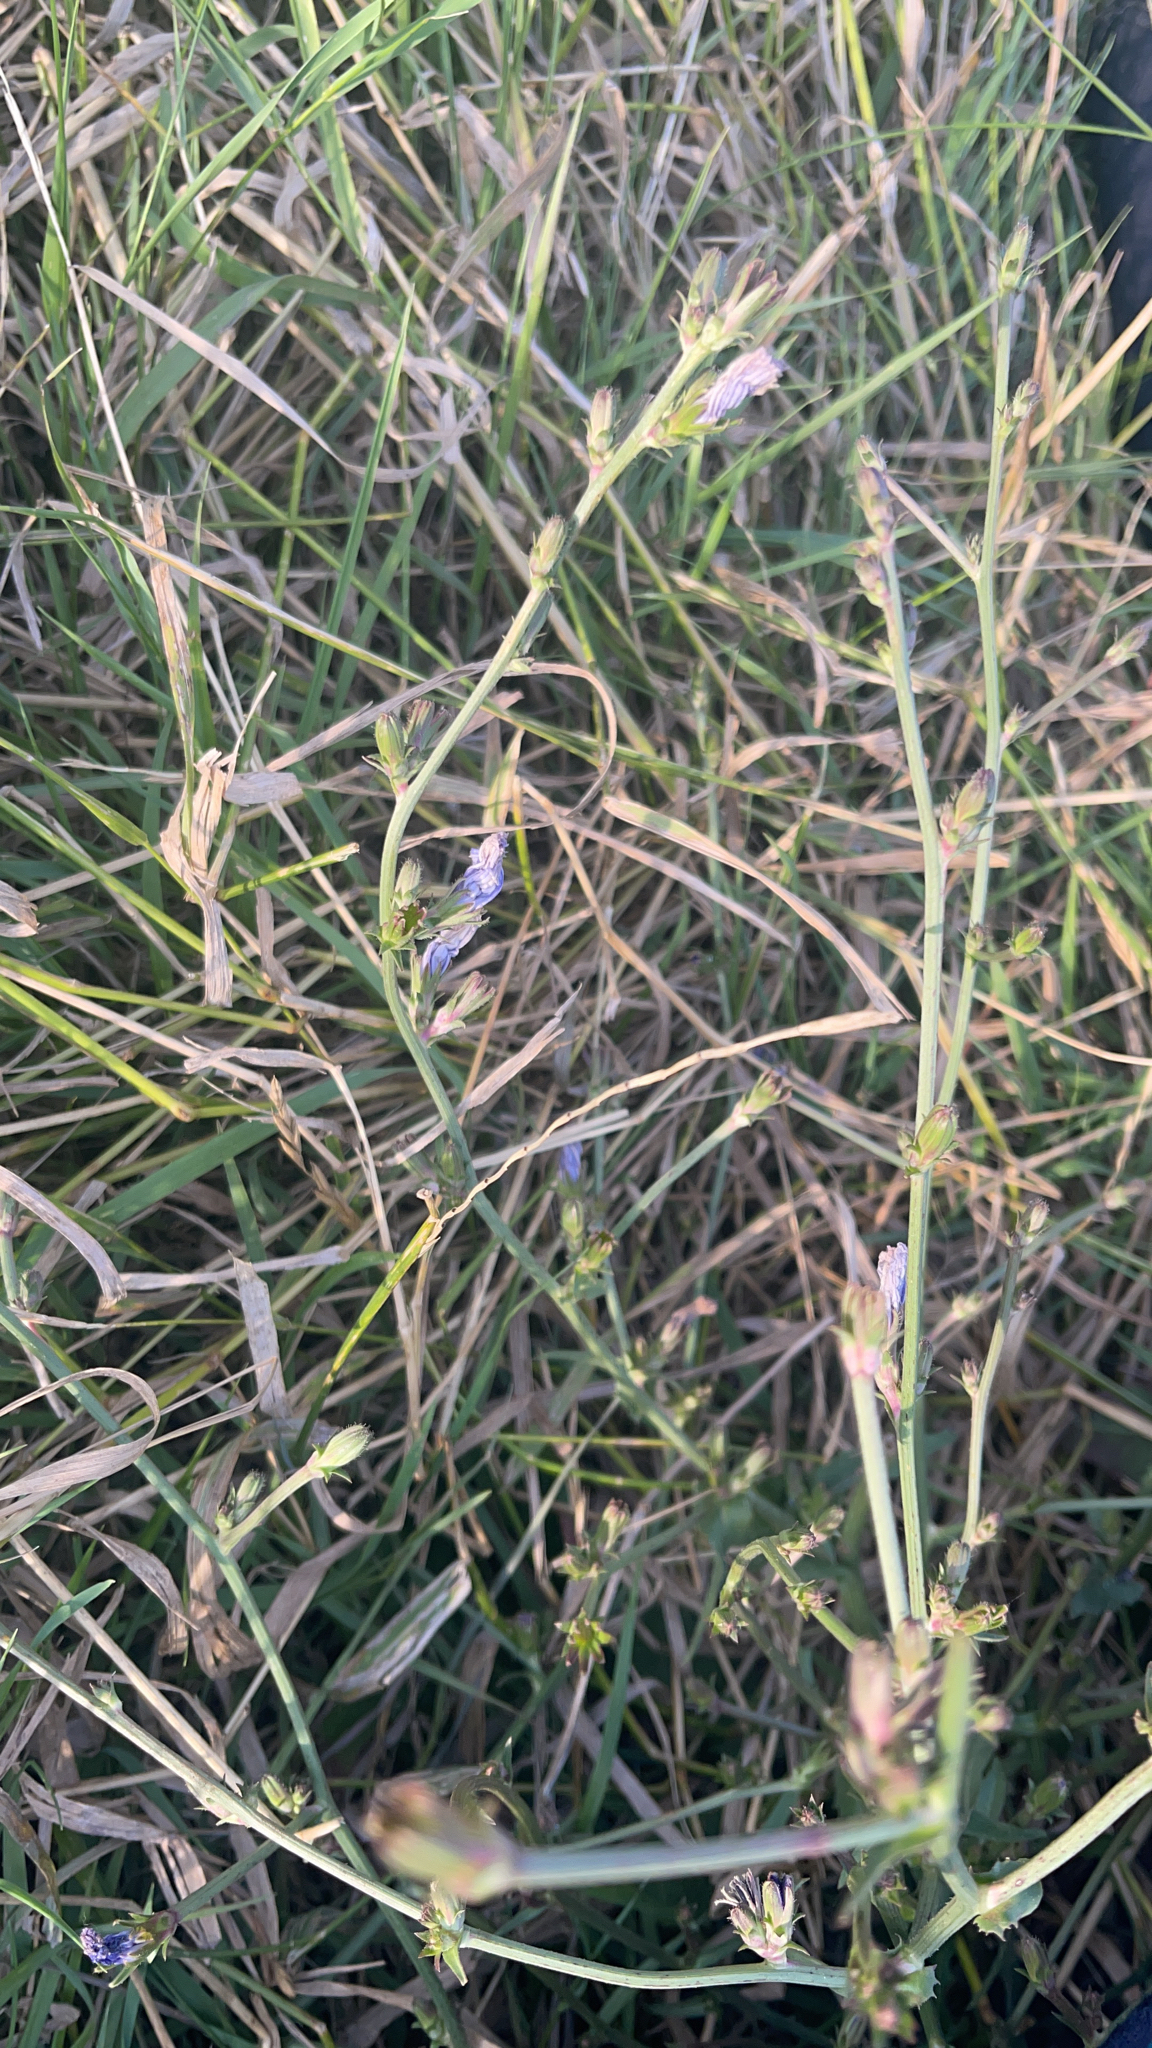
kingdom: Plantae
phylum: Tracheophyta
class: Magnoliopsida
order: Asterales
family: Asteraceae
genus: Cichorium
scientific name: Cichorium intybus
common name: Chicory
